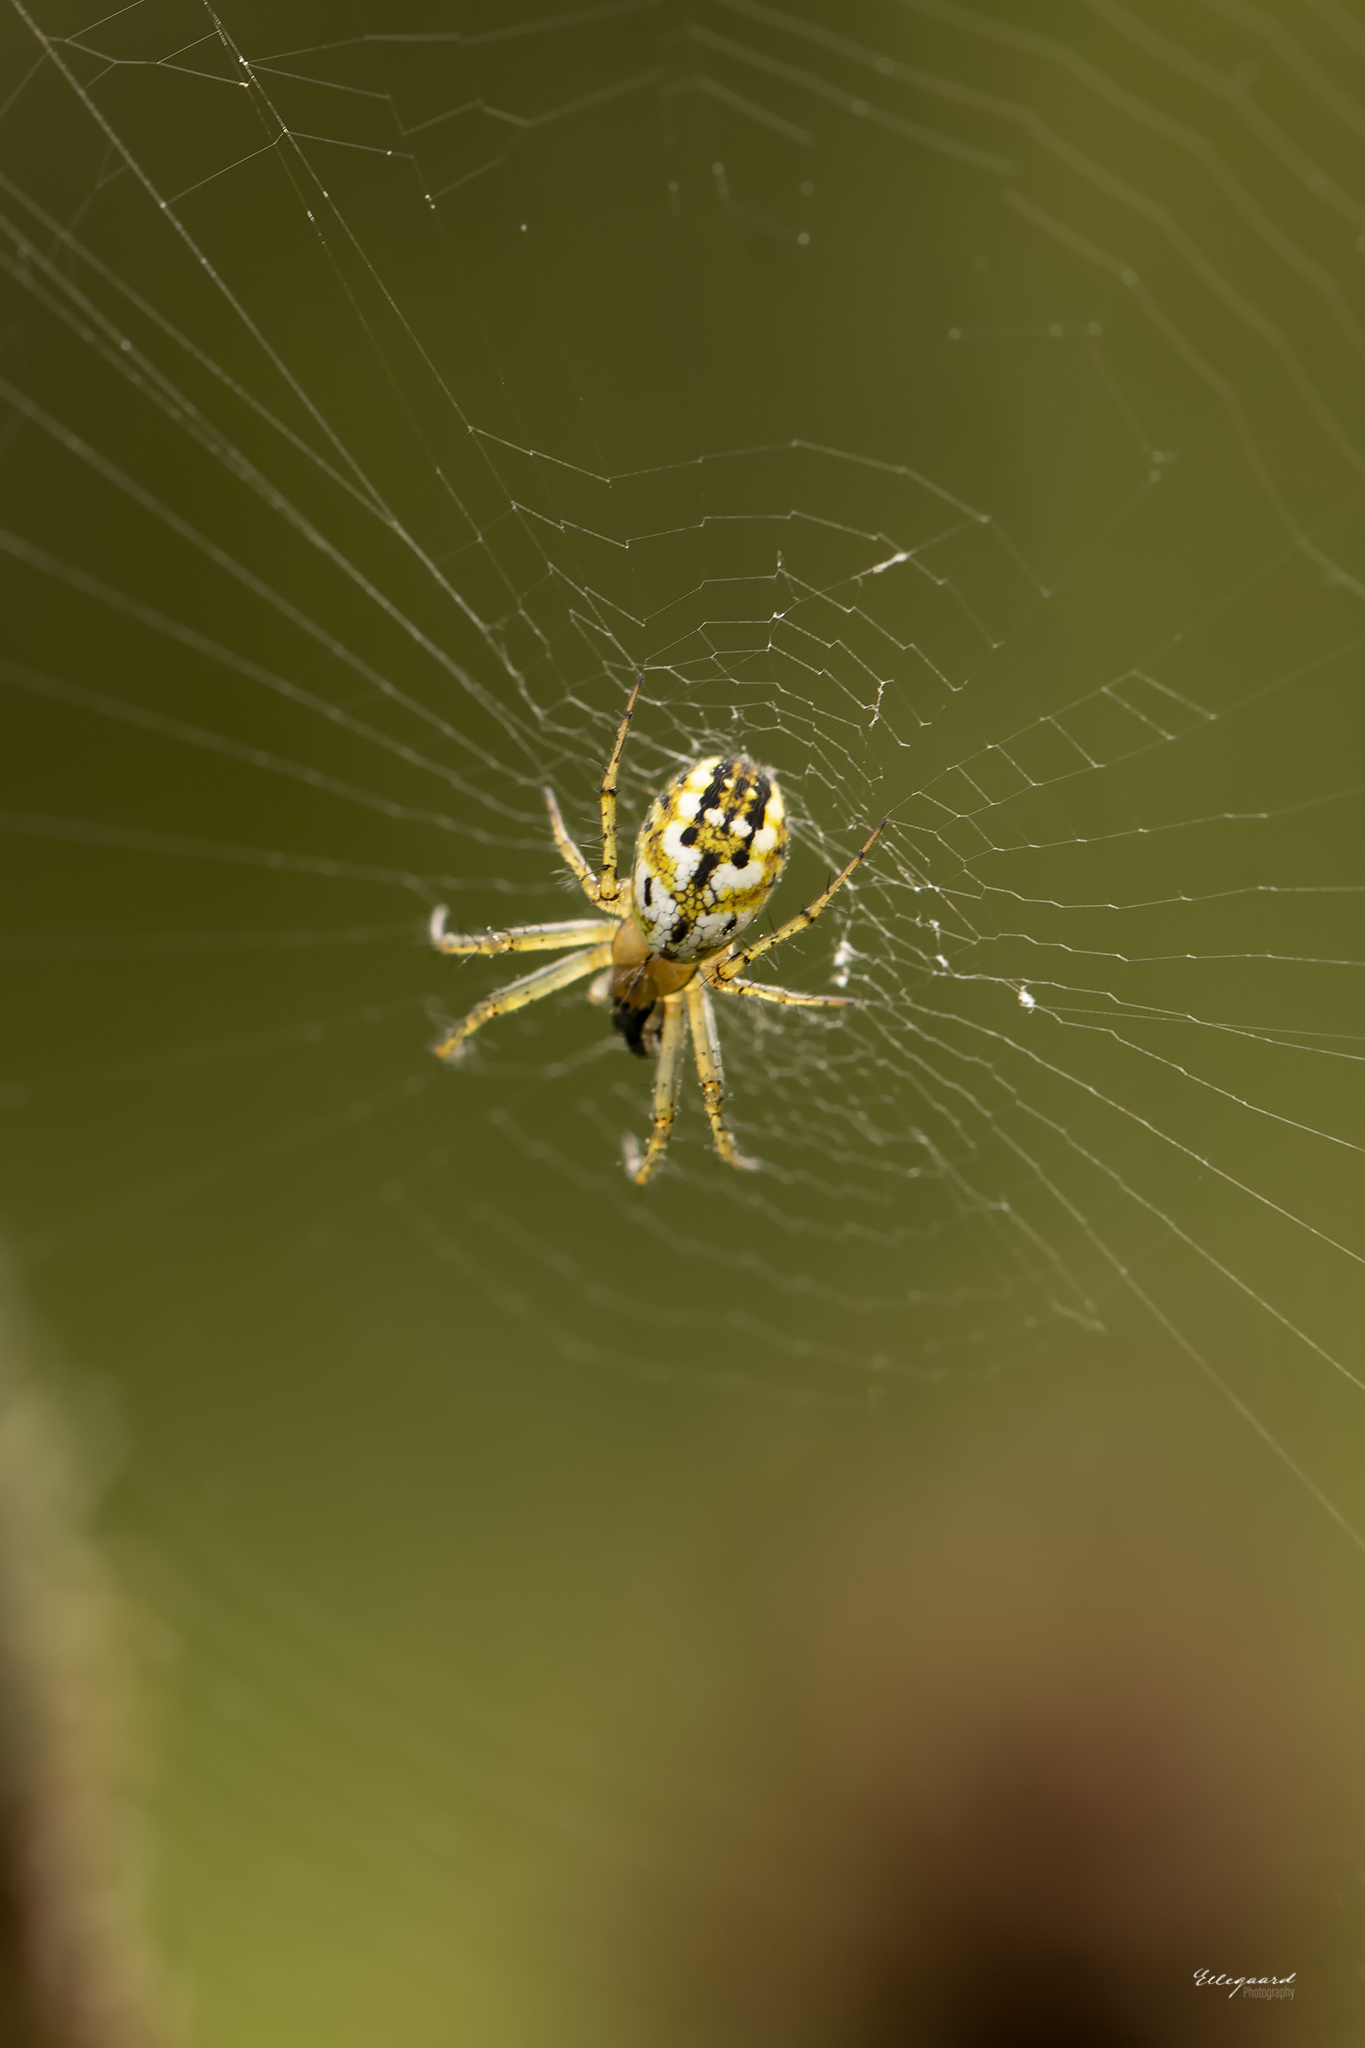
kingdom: Animalia
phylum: Arthropoda
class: Arachnida
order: Araneae
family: Araneidae
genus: Mangora
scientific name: Mangora acalypha
